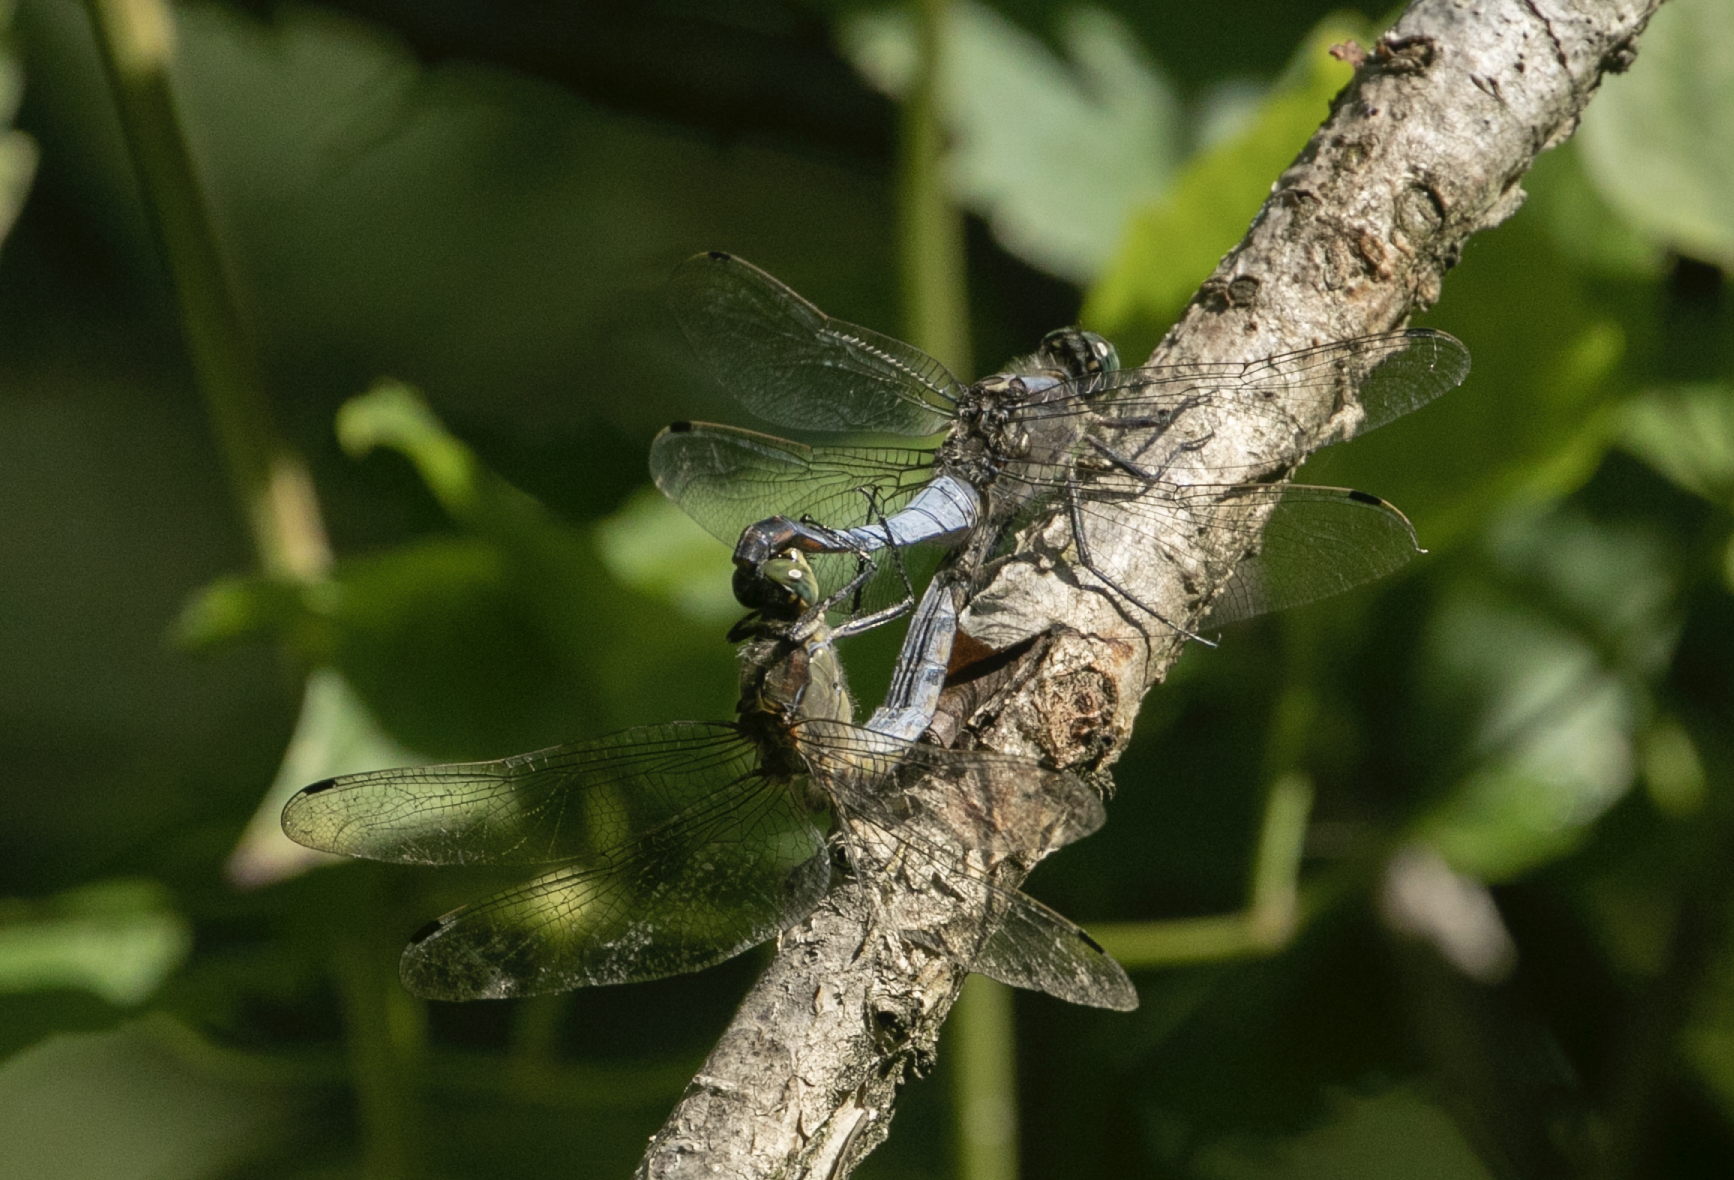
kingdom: Animalia
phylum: Arthropoda
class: Insecta
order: Odonata
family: Libellulidae
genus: Orthetrum
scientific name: Orthetrum cancellatum
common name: Black-tailed skimmer
